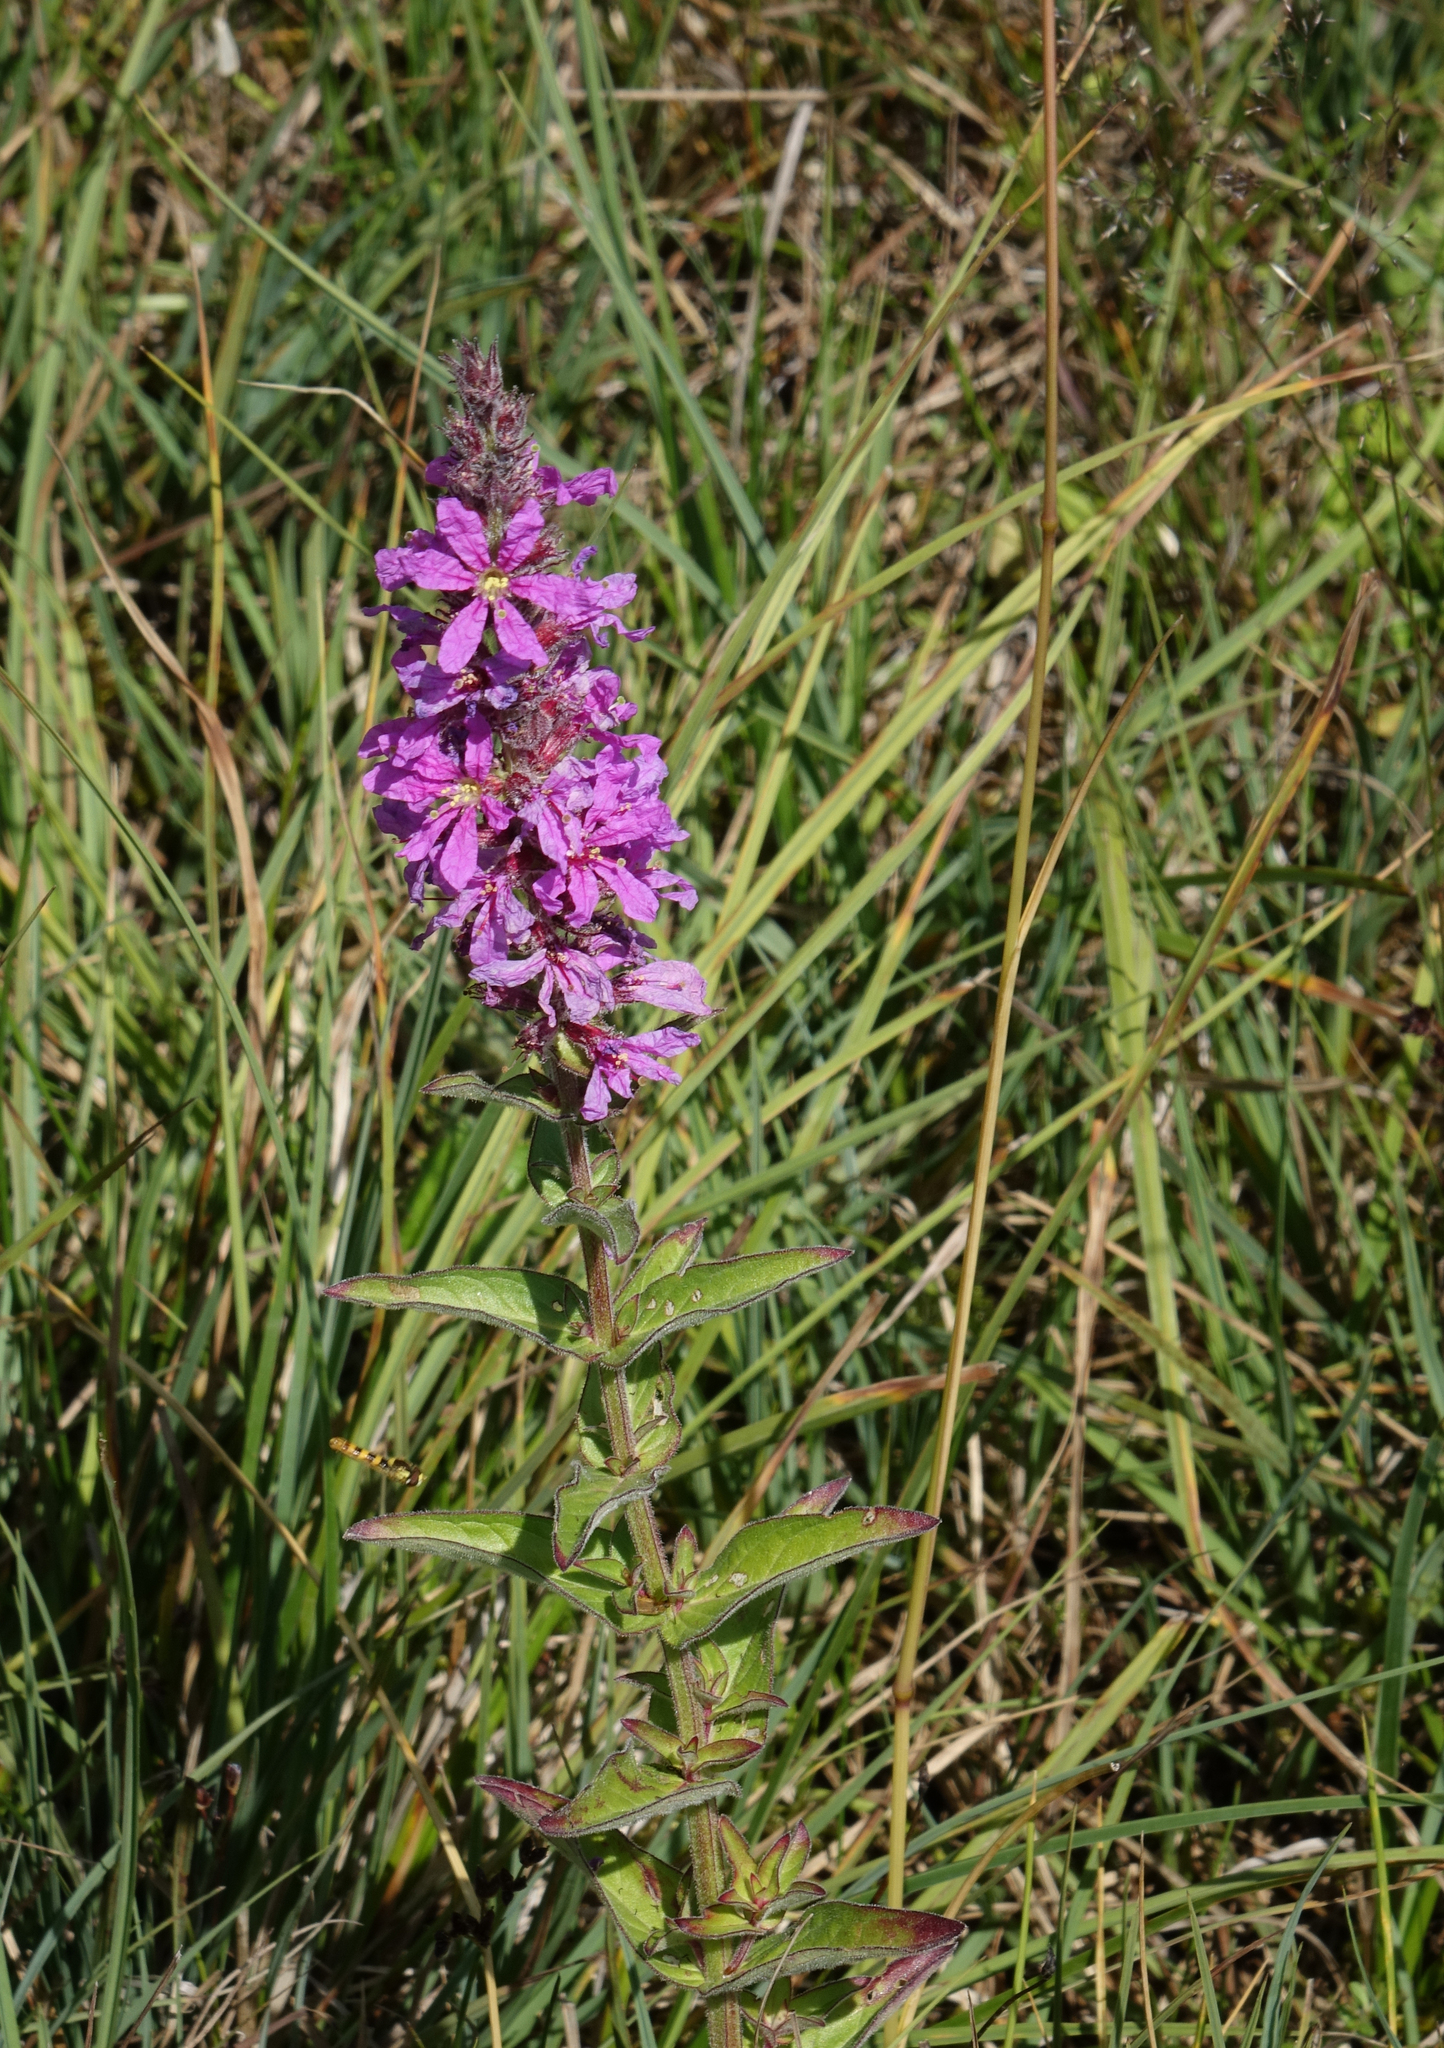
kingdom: Plantae
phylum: Tracheophyta
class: Magnoliopsida
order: Myrtales
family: Lythraceae
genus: Lythrum
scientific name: Lythrum salicaria
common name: Purple loosestrife
